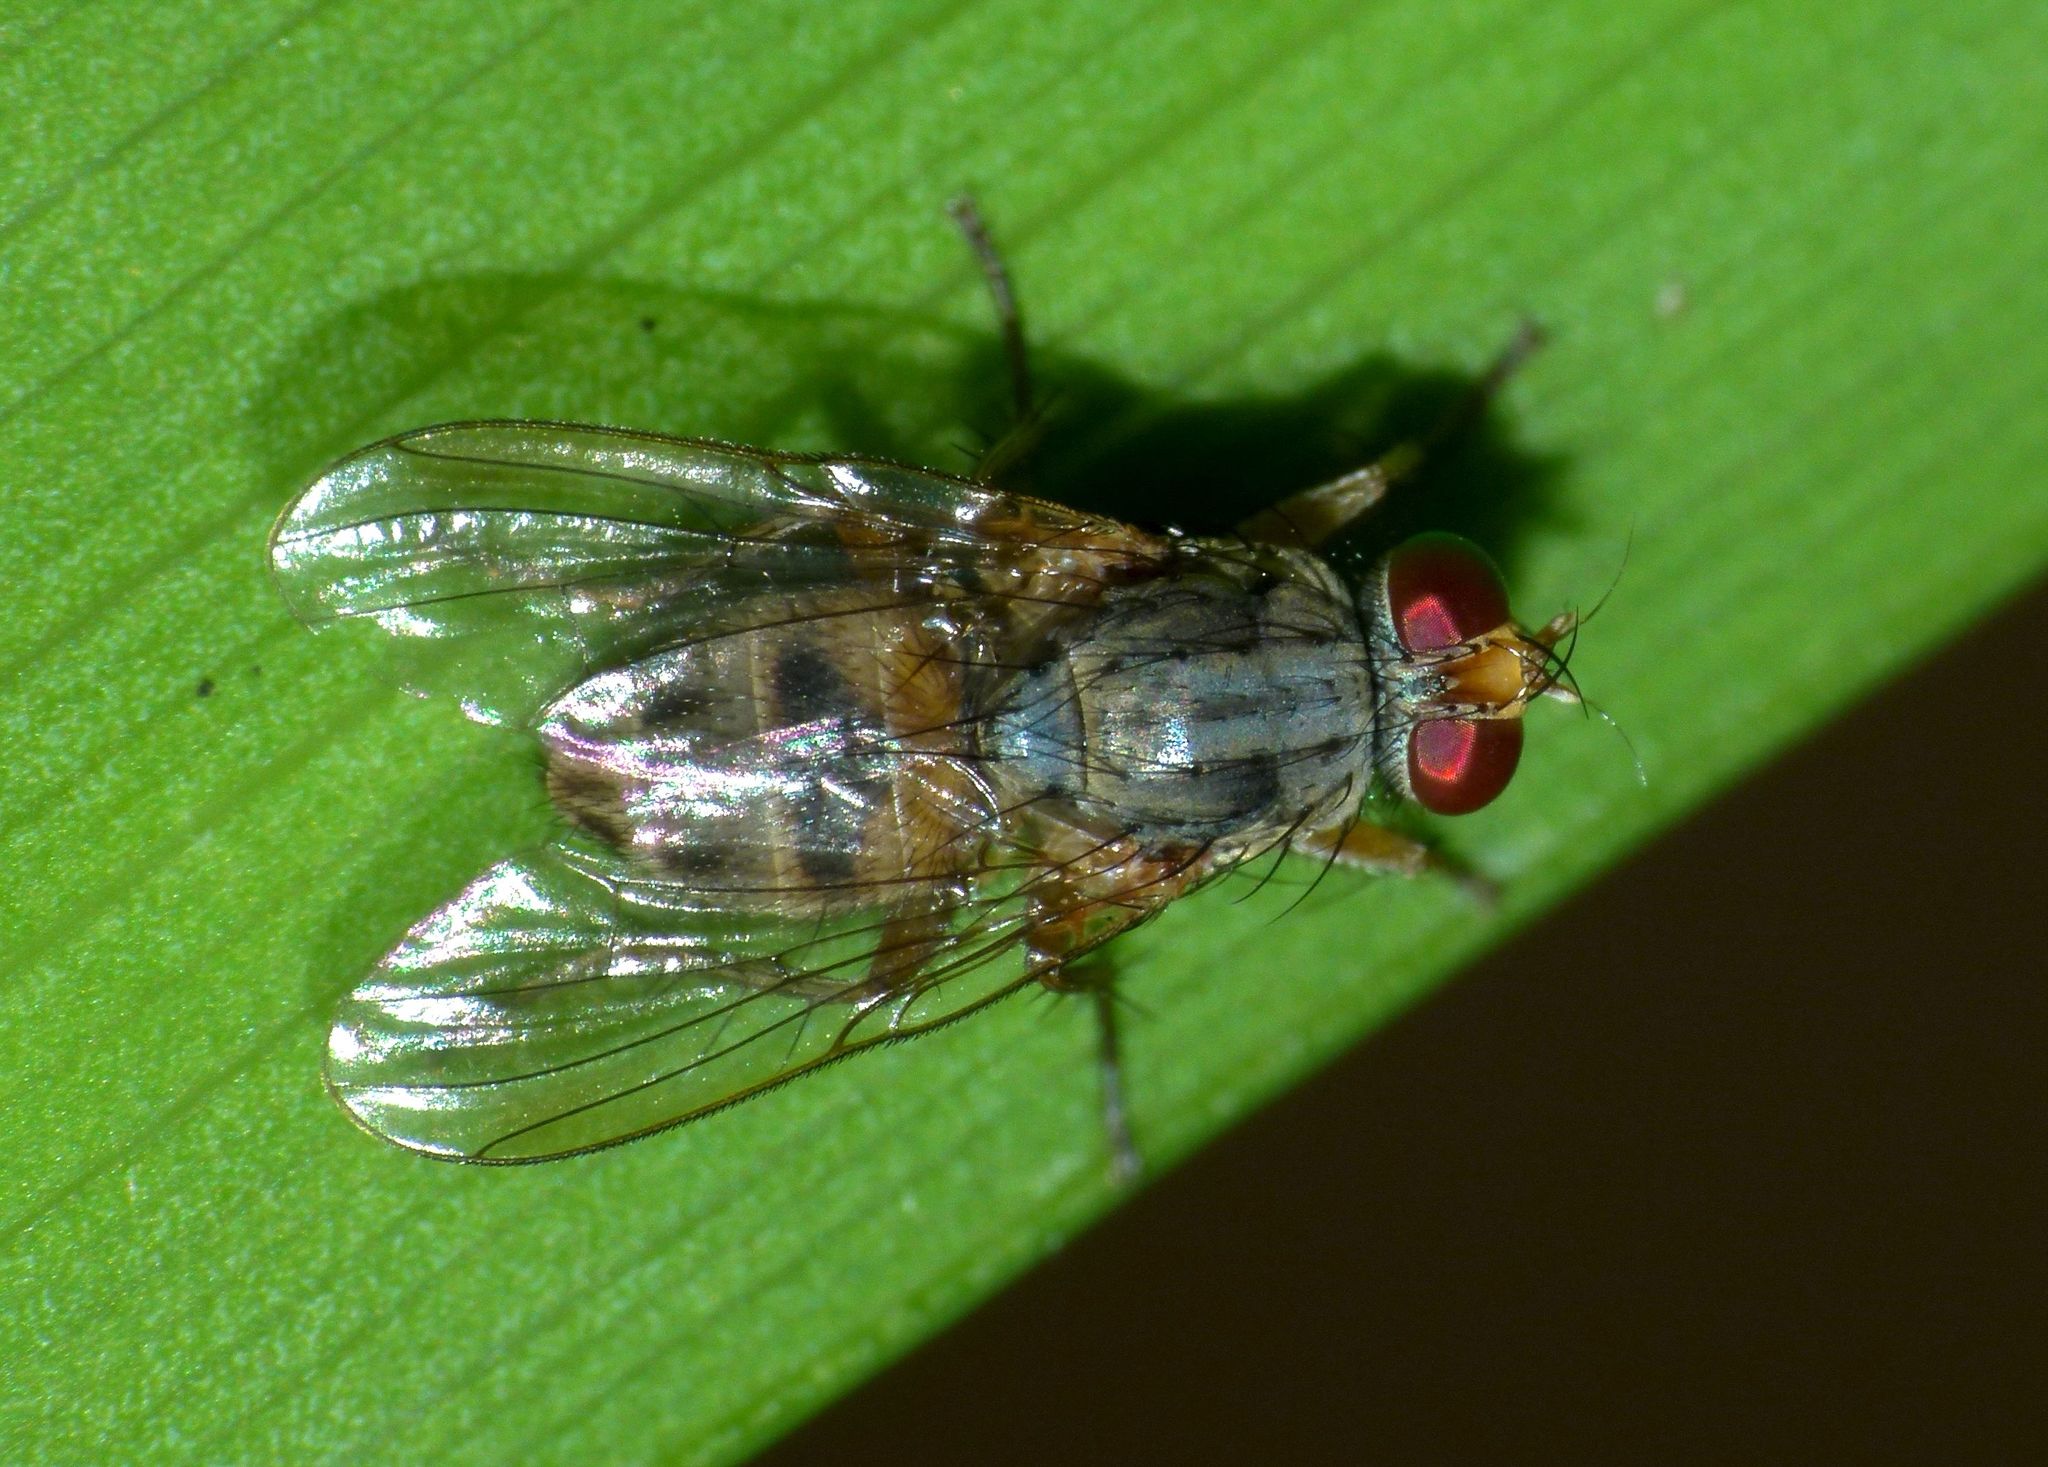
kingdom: Animalia
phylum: Arthropoda
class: Insecta
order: Diptera
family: Muscidae
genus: Pygophora
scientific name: Pygophora apicalis
